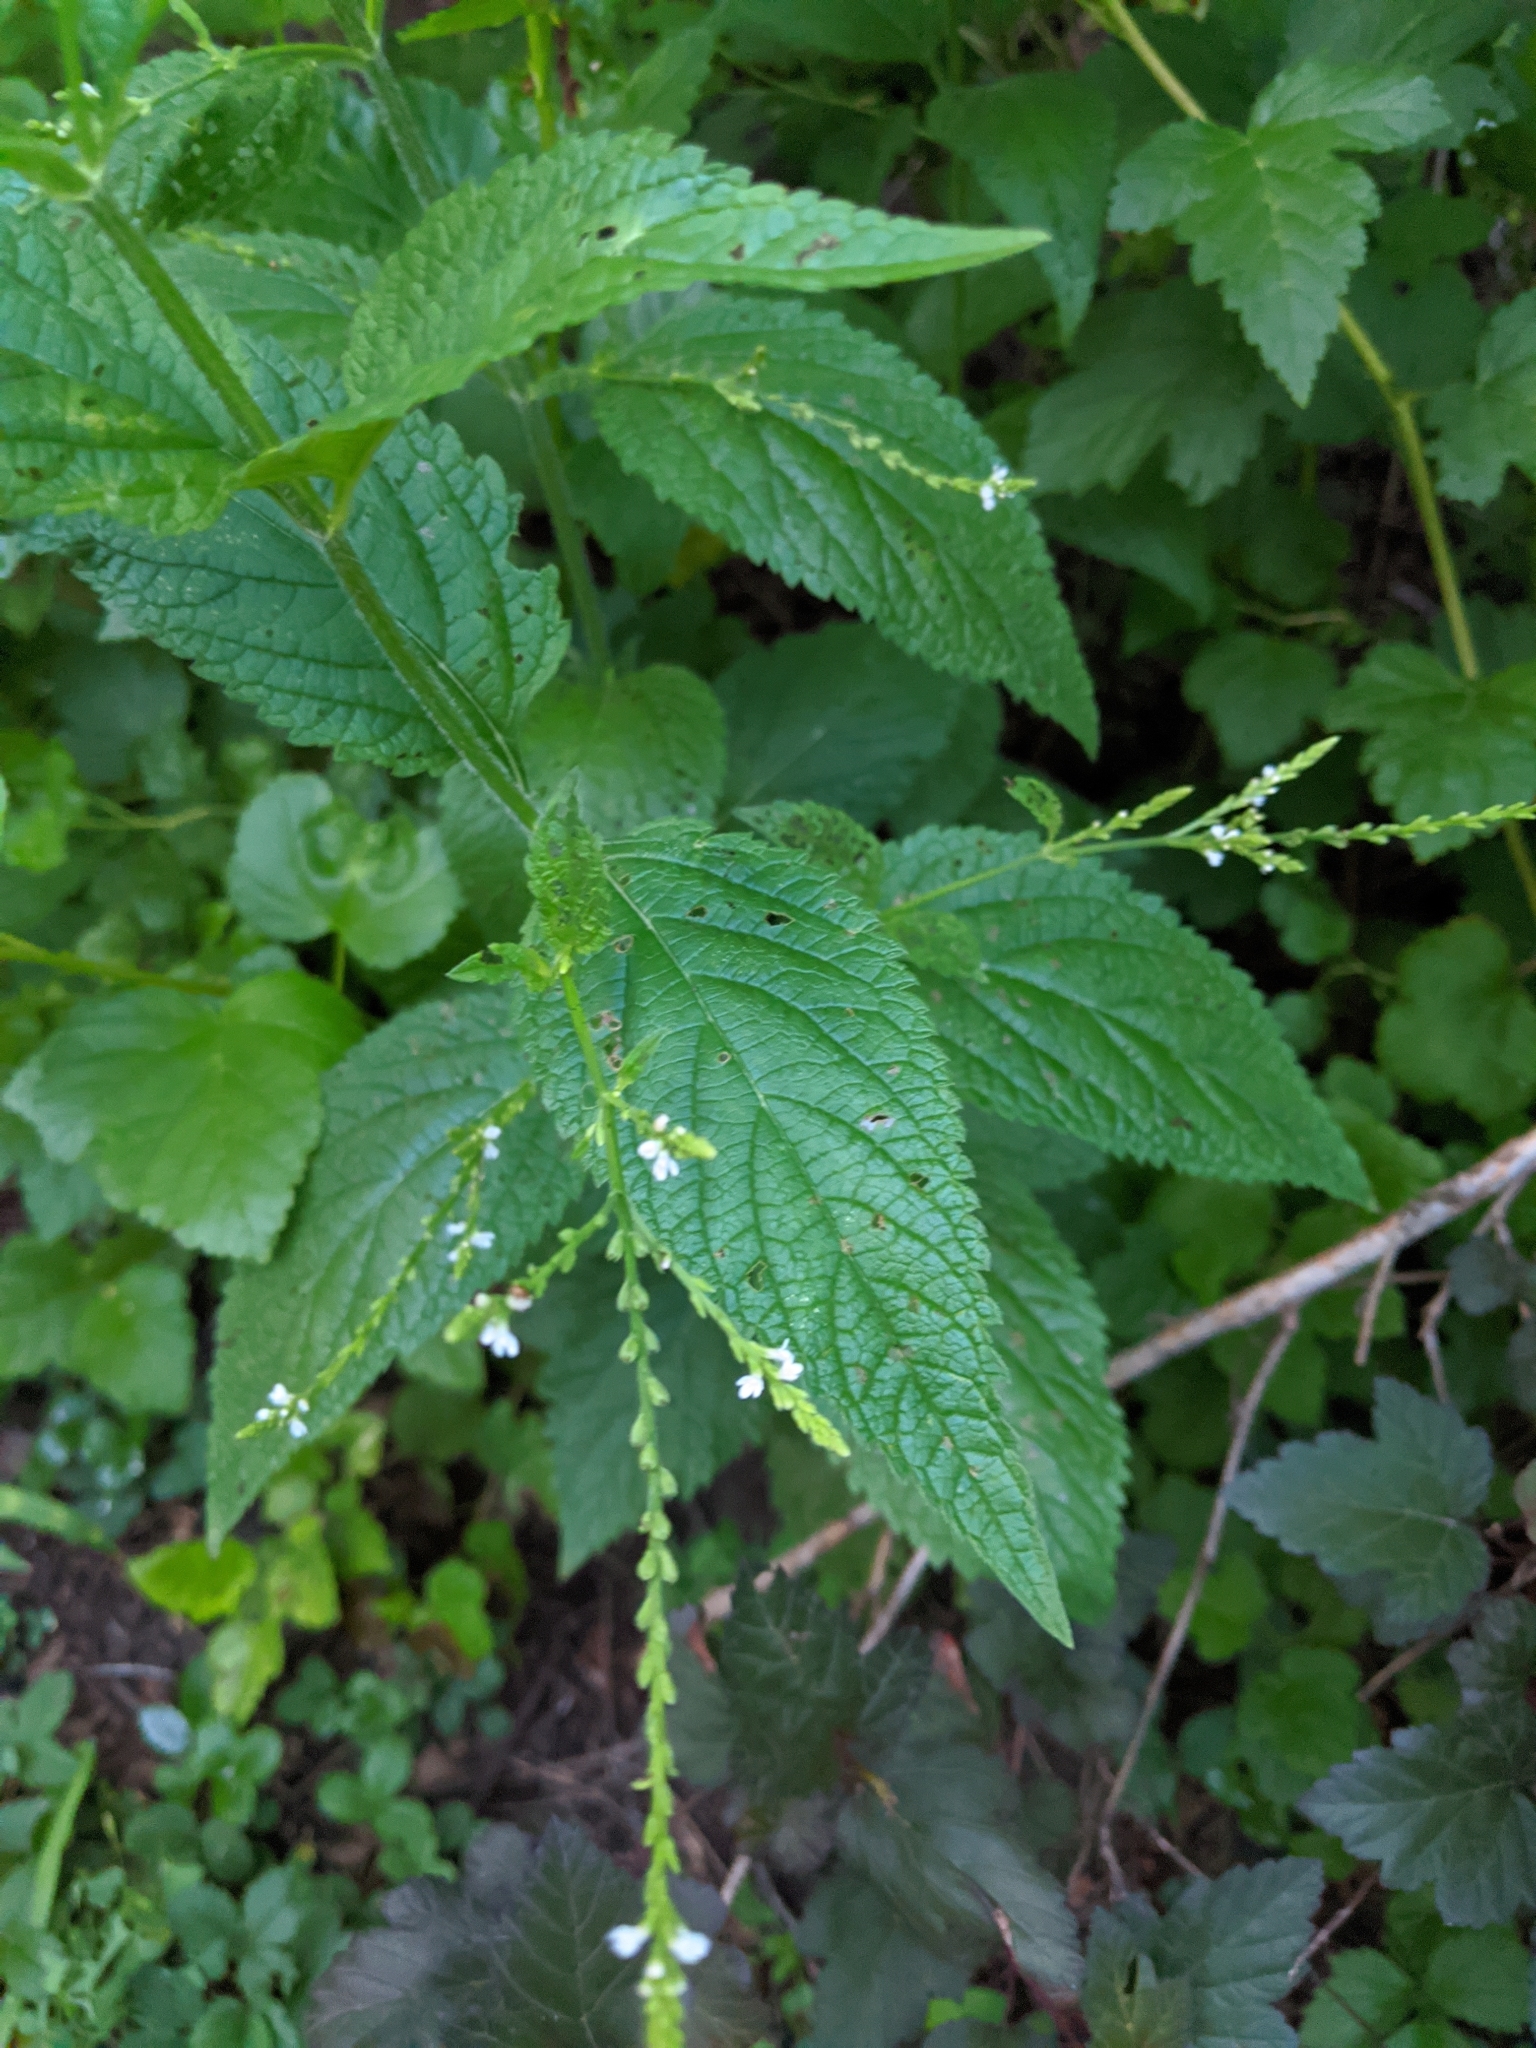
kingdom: Plantae
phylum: Tracheophyta
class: Magnoliopsida
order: Lamiales
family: Verbenaceae
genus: Verbena
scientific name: Verbena urticifolia
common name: Nettle-leaved vervain
